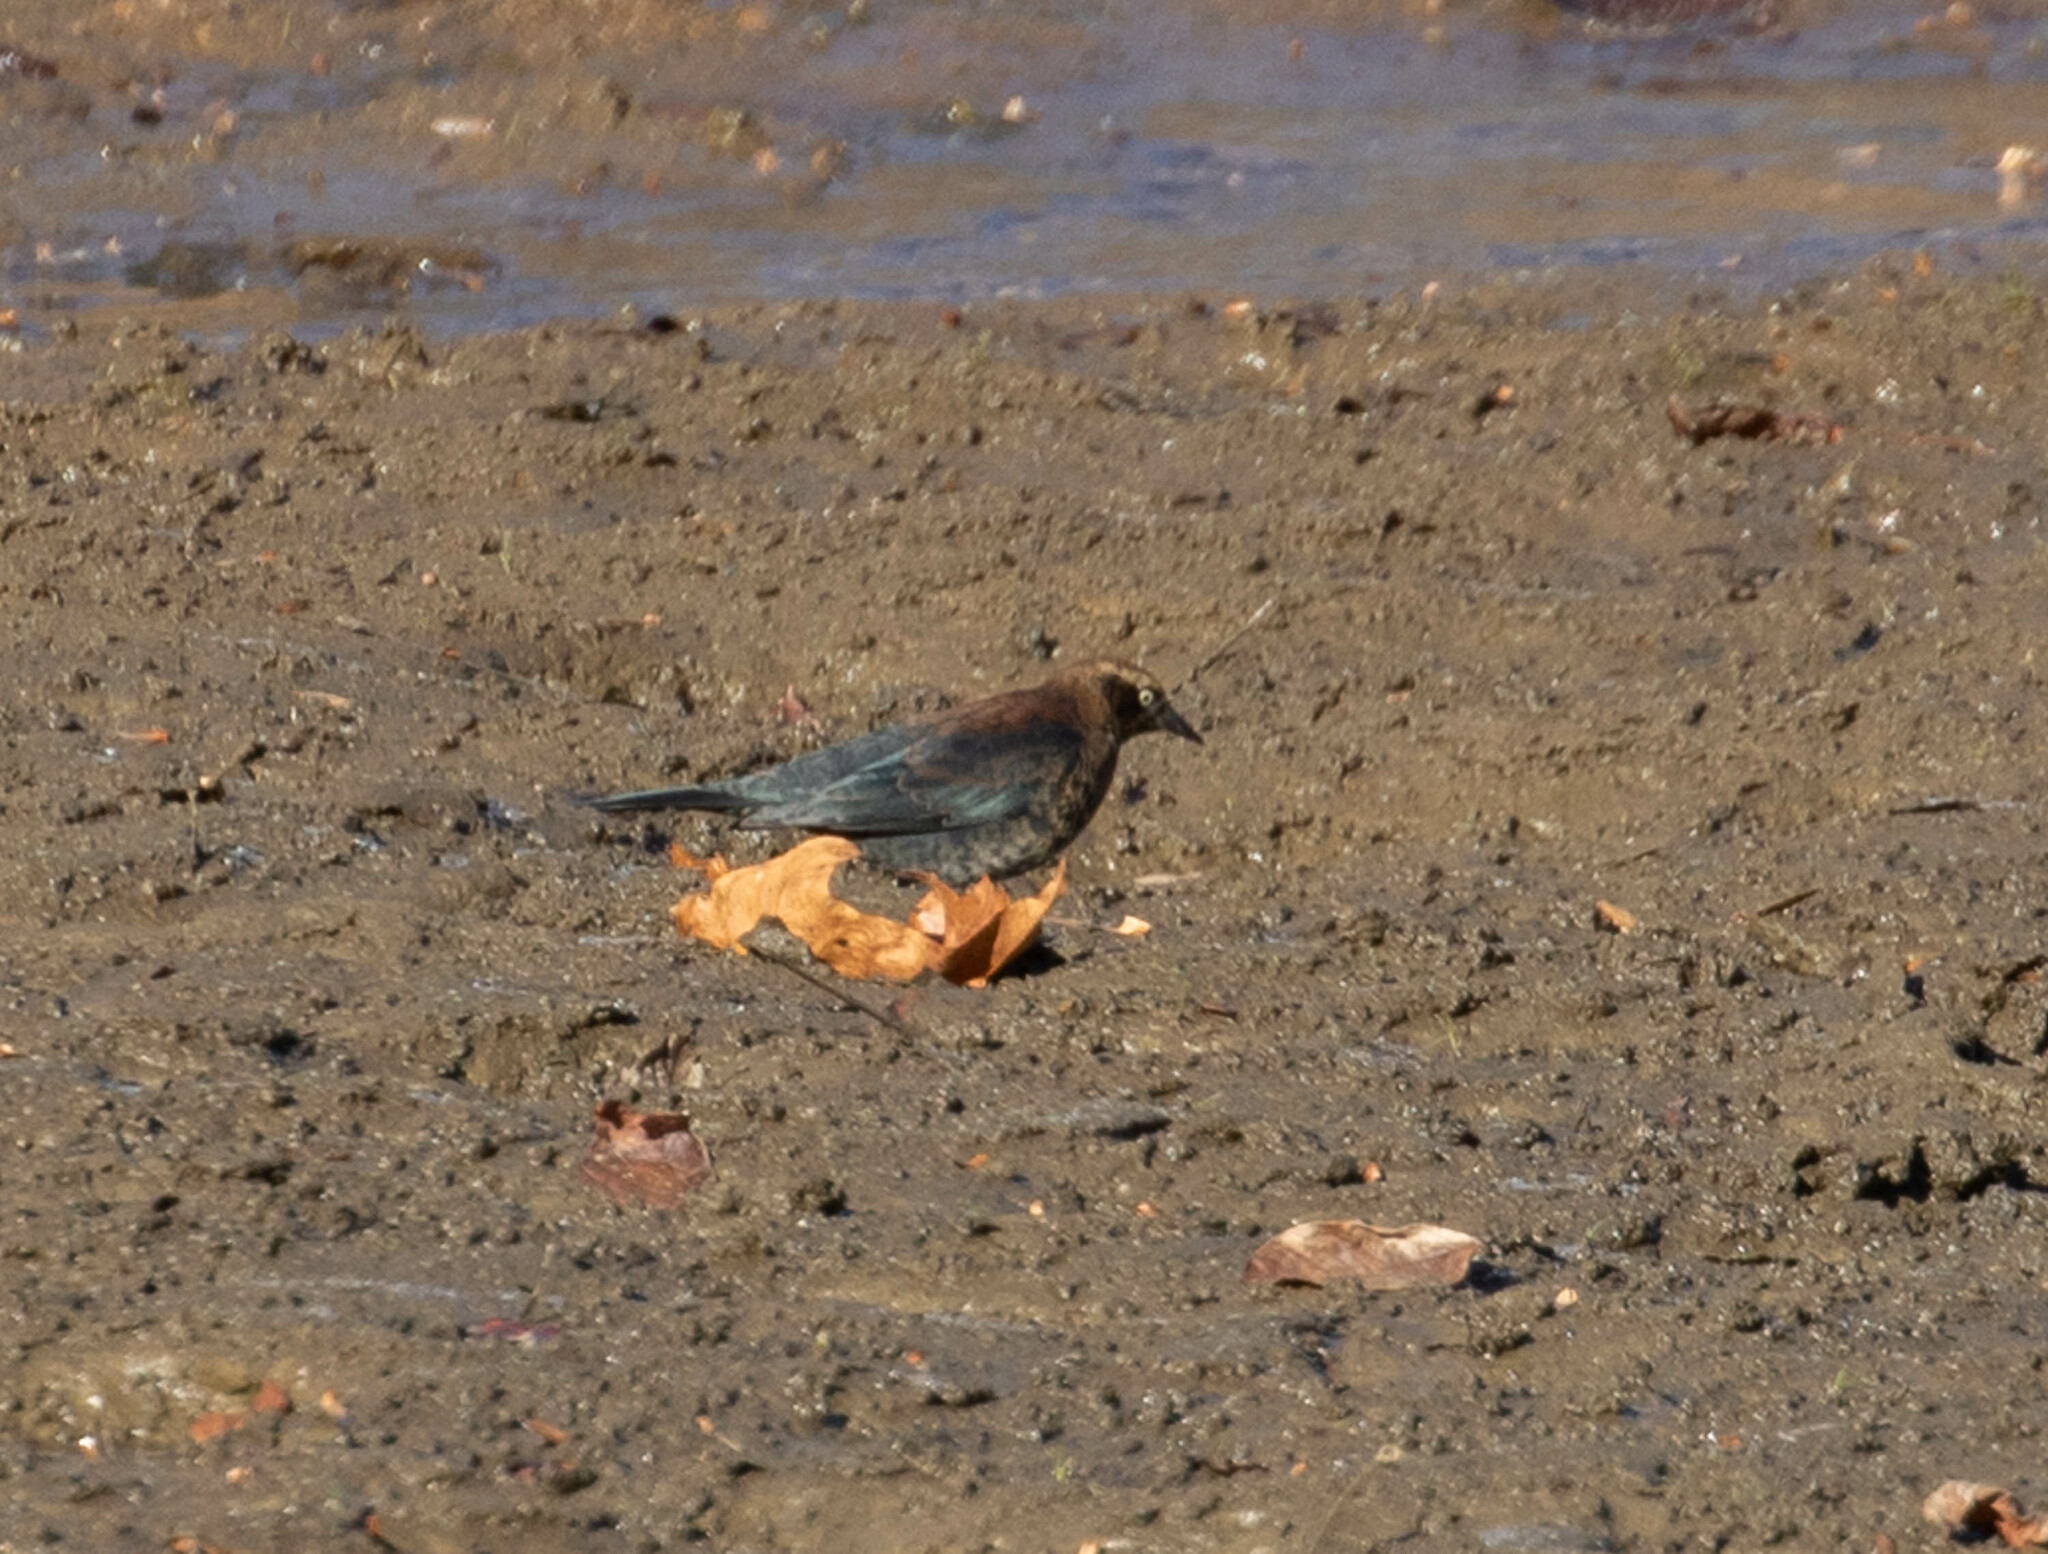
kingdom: Animalia
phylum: Chordata
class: Aves
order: Passeriformes
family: Icteridae
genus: Euphagus
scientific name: Euphagus carolinus
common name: Rusty blackbird
